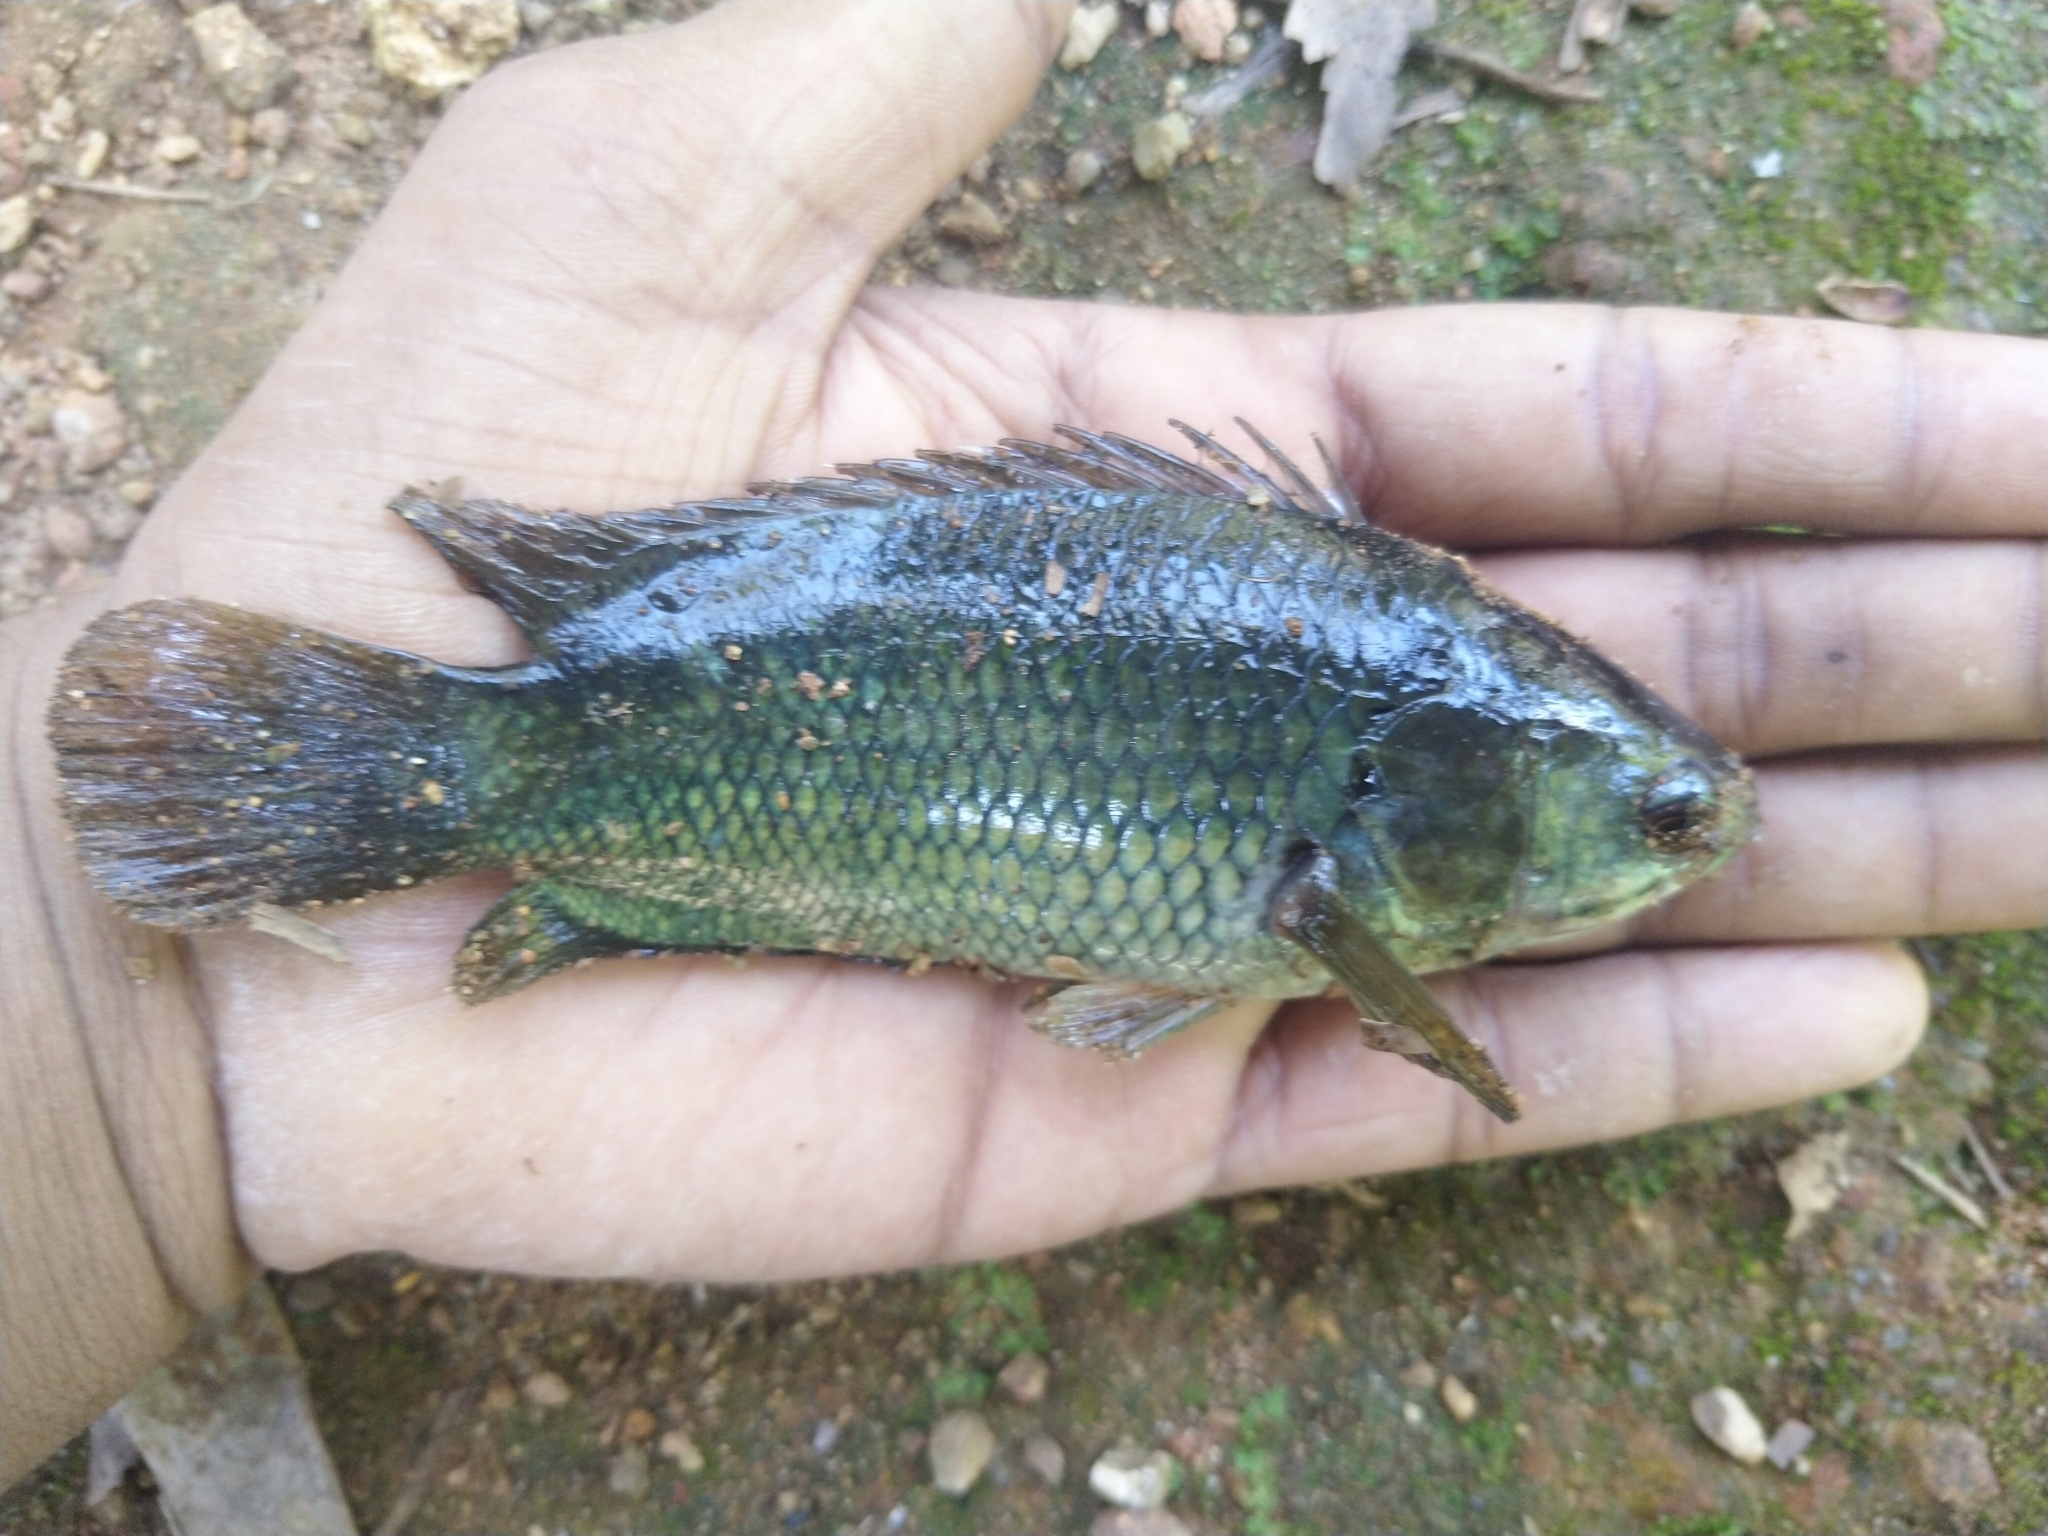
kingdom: Animalia
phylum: Chordata
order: Perciformes
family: Anabantidae
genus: Anabas
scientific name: Anabas testudineus
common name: Climbing perch
